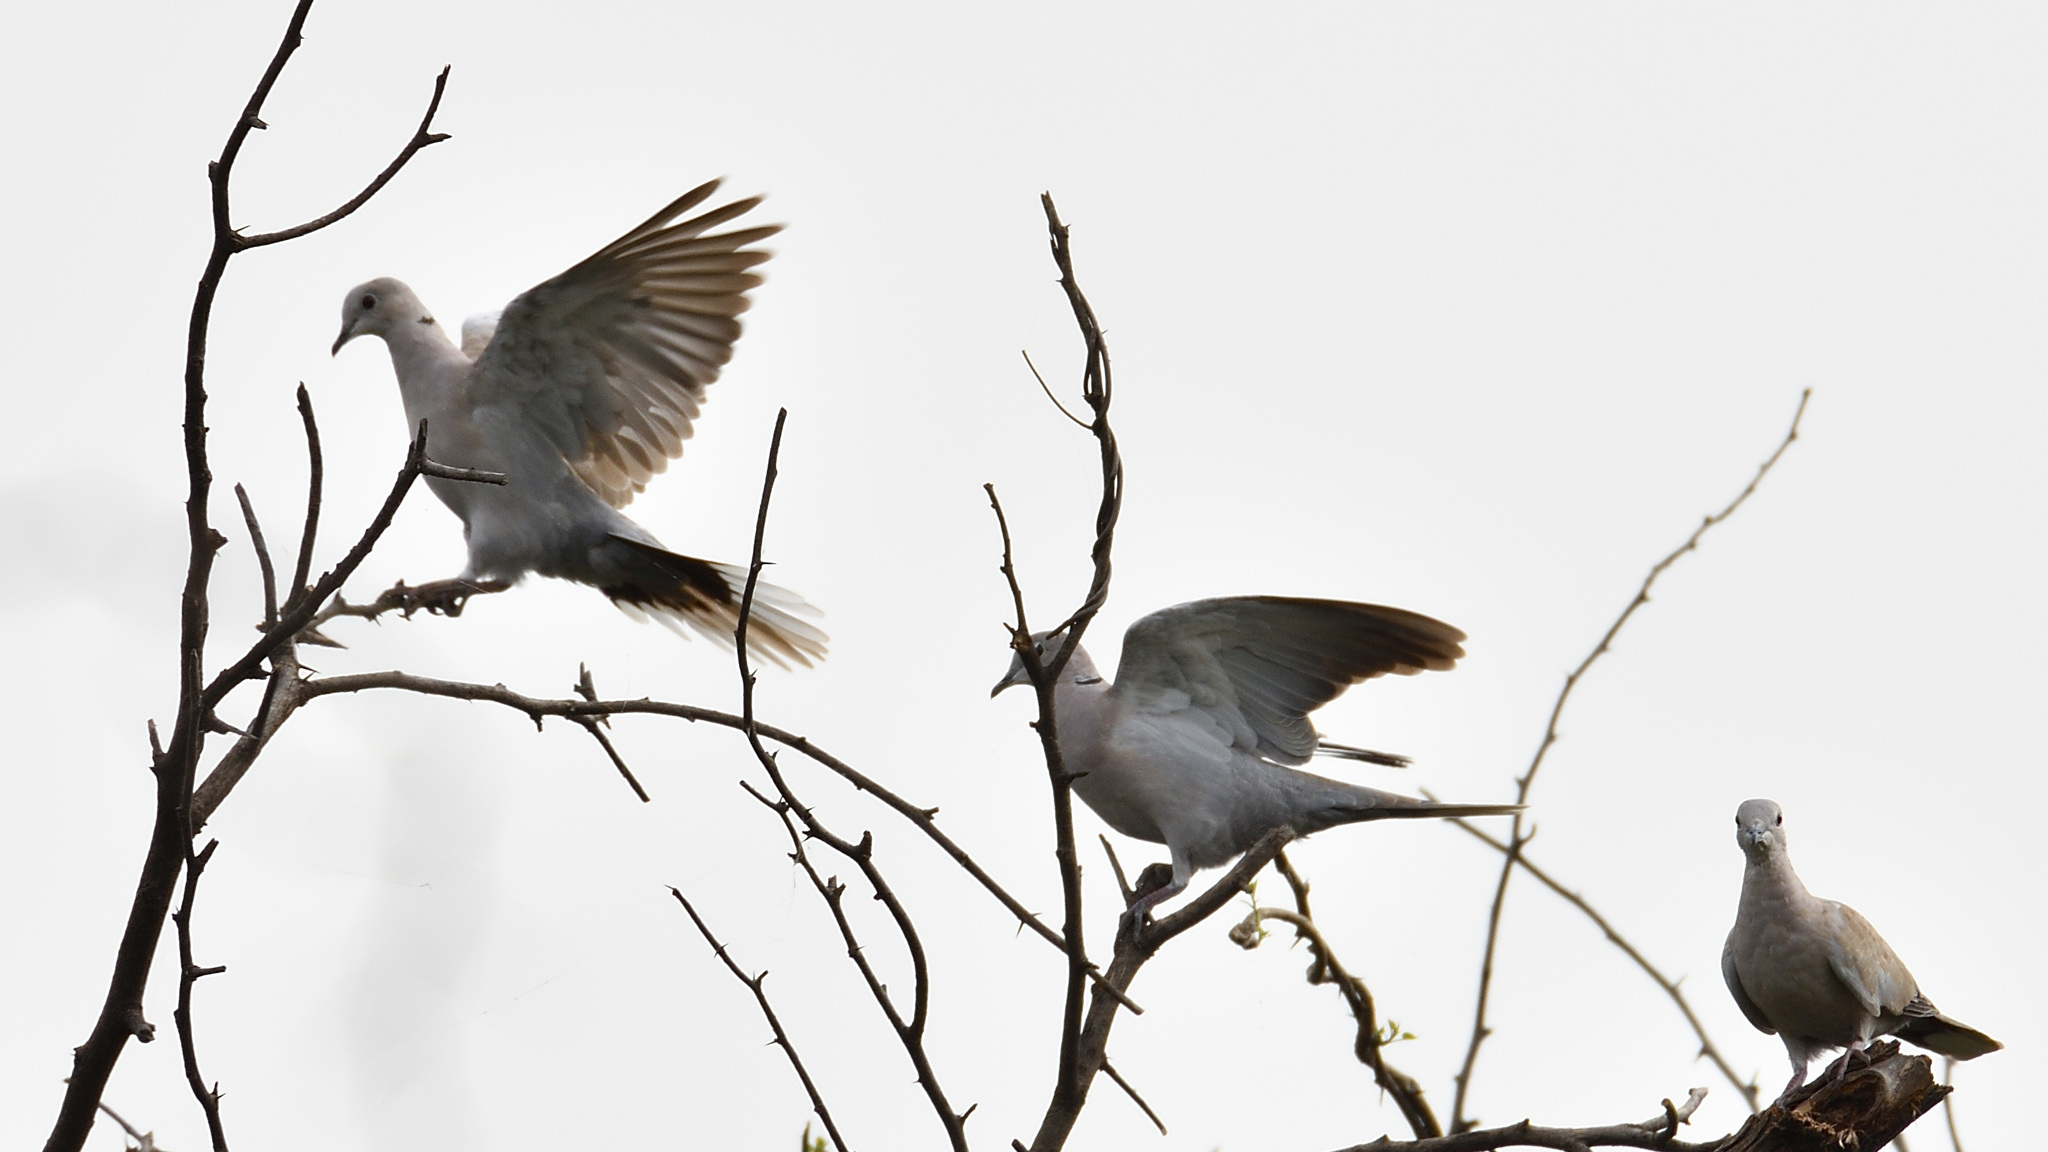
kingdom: Animalia
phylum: Chordata
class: Aves
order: Columbiformes
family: Columbidae
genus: Streptopelia
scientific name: Streptopelia decaocto
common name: Eurasian collared dove
